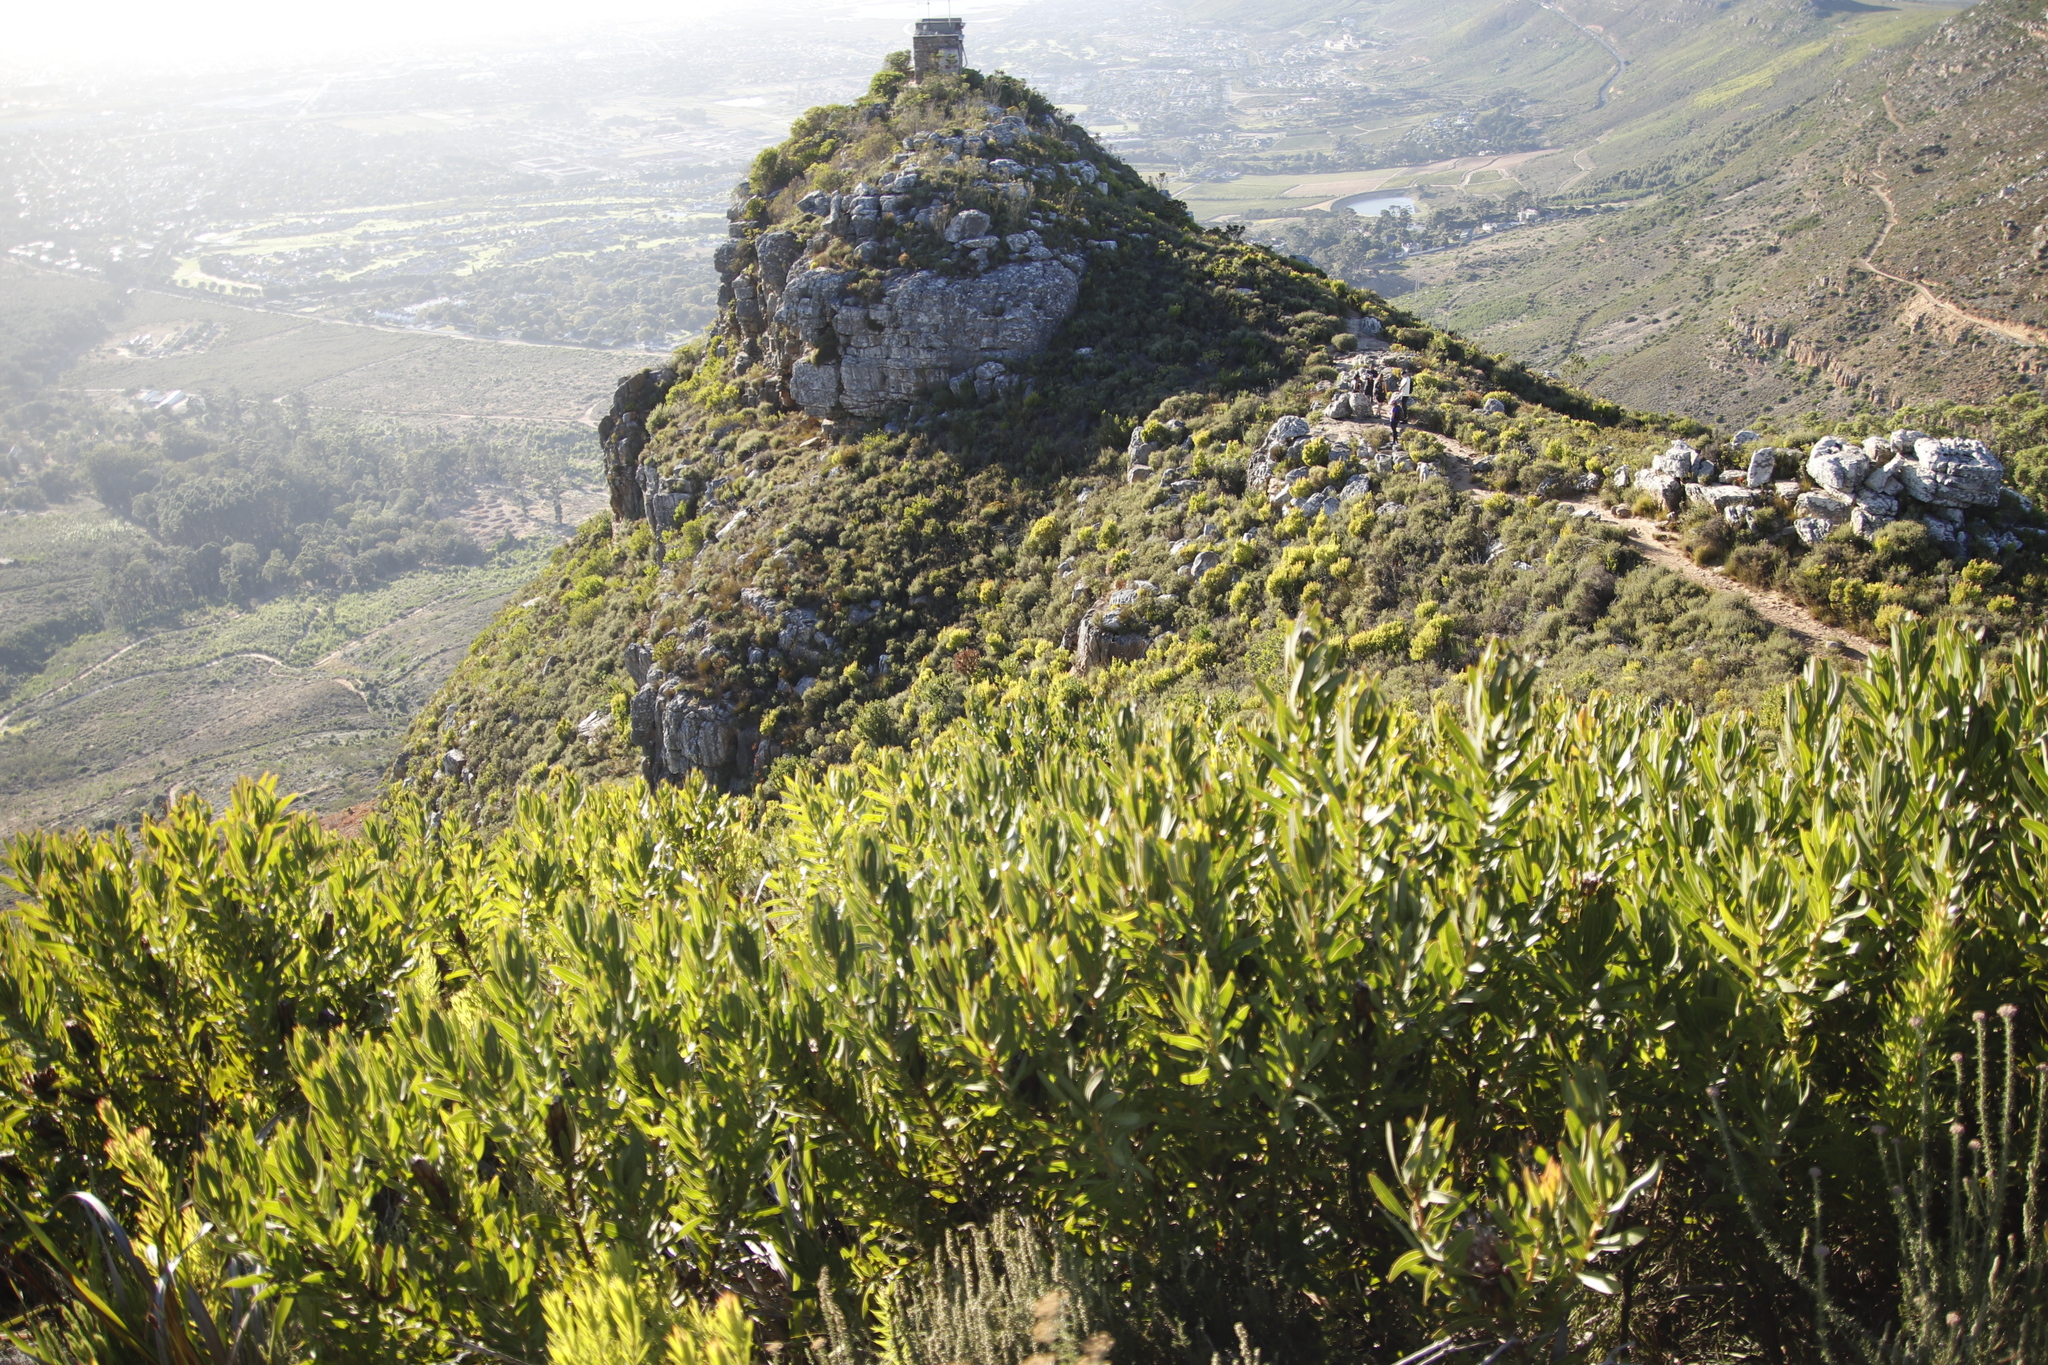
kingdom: Plantae
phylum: Tracheophyta
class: Magnoliopsida
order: Proteales
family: Proteaceae
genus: Protea
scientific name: Protea lepidocarpodendron
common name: Black-bearded protea
